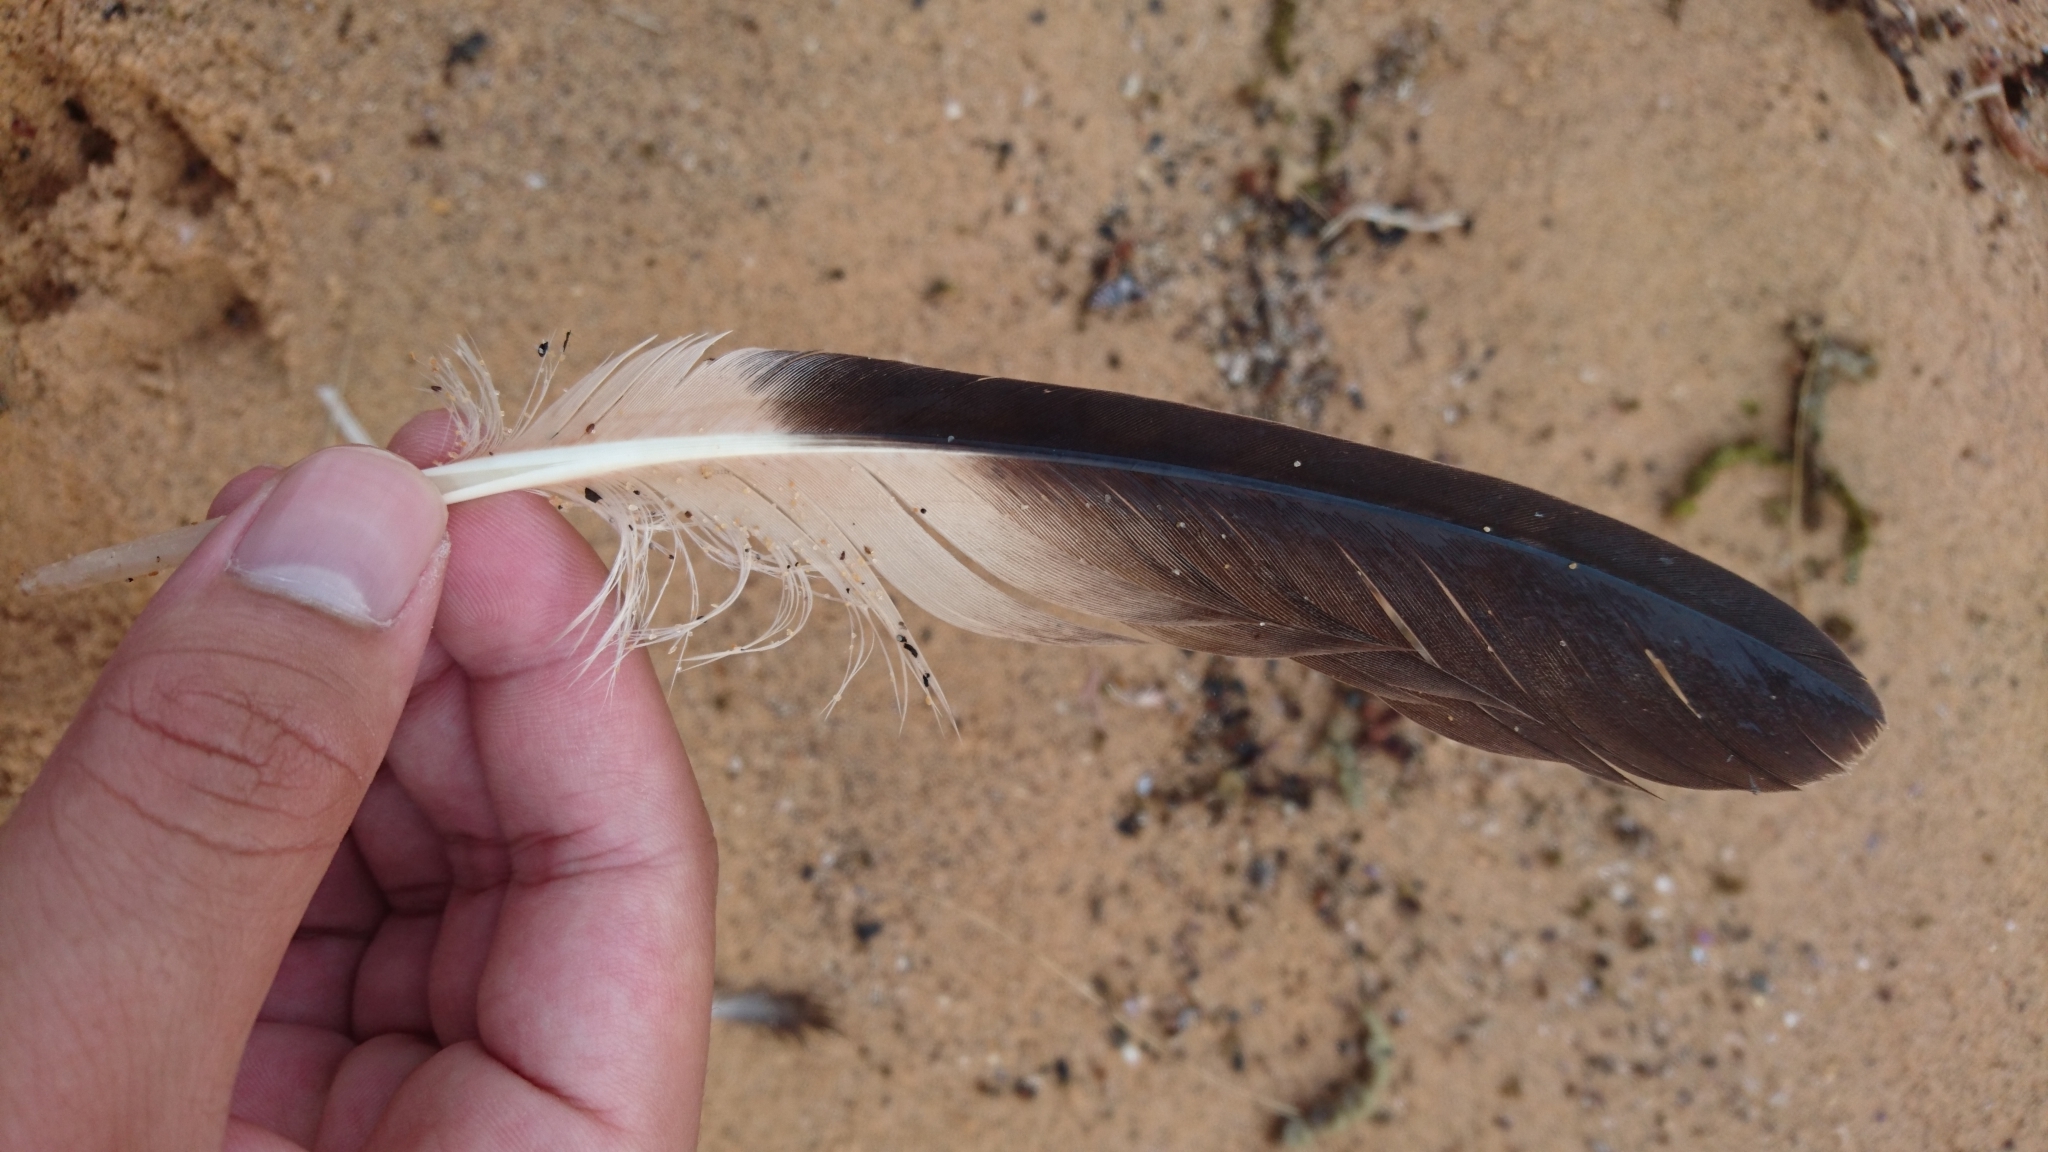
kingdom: Animalia
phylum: Chordata
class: Aves
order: Charadriiformes
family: Stercorariidae
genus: Stercorarius
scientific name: Stercorarius pomarinus
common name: Pomarine jaeger
